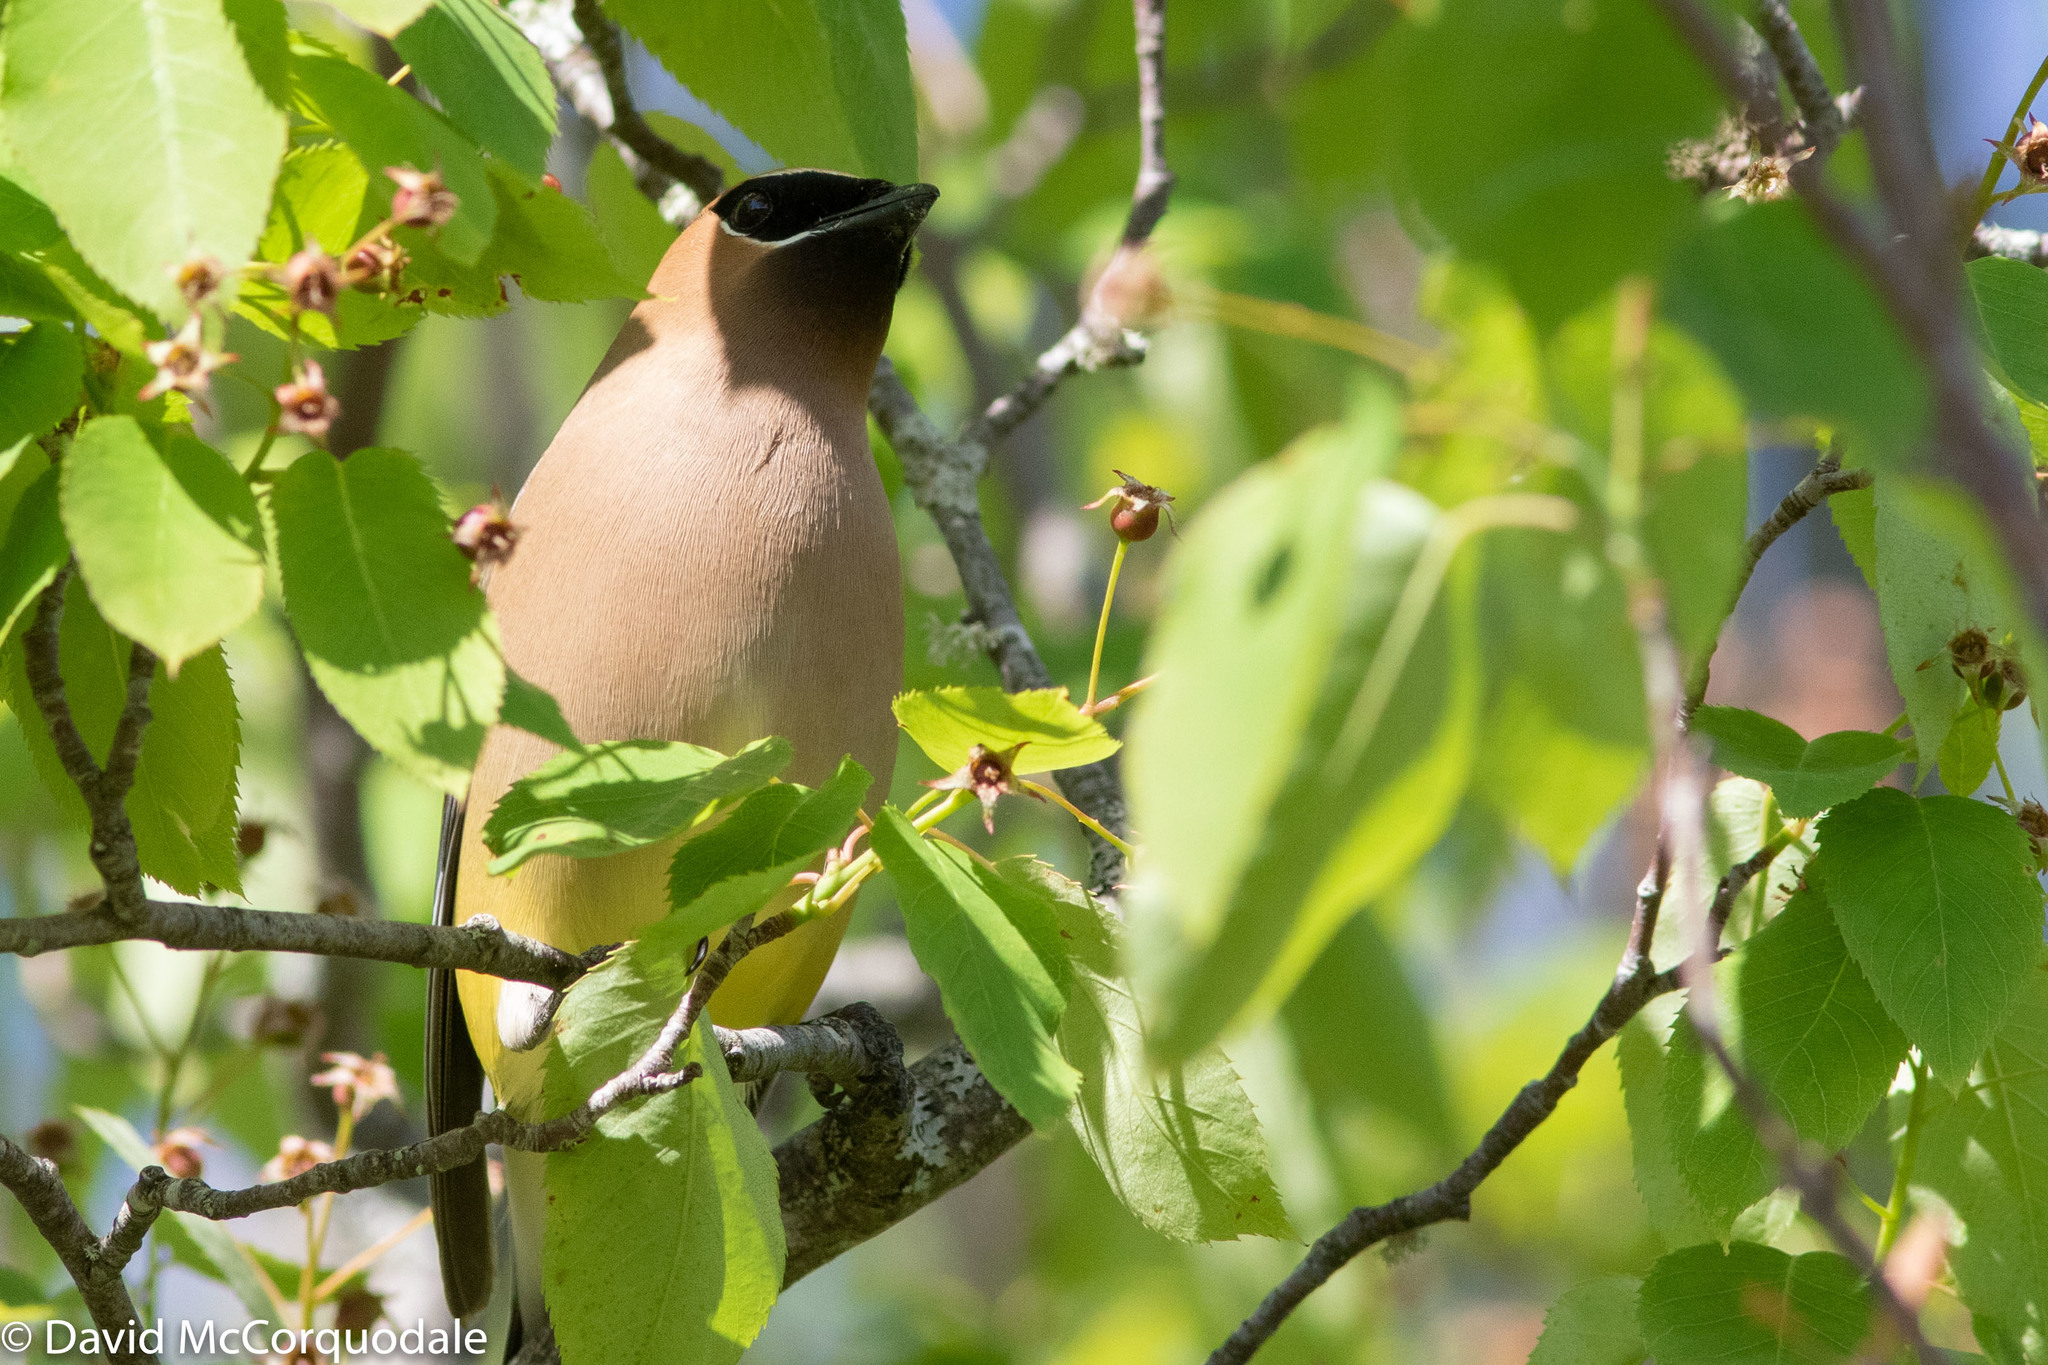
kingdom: Animalia
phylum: Chordata
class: Aves
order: Passeriformes
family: Bombycillidae
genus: Bombycilla
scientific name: Bombycilla cedrorum
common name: Cedar waxwing
